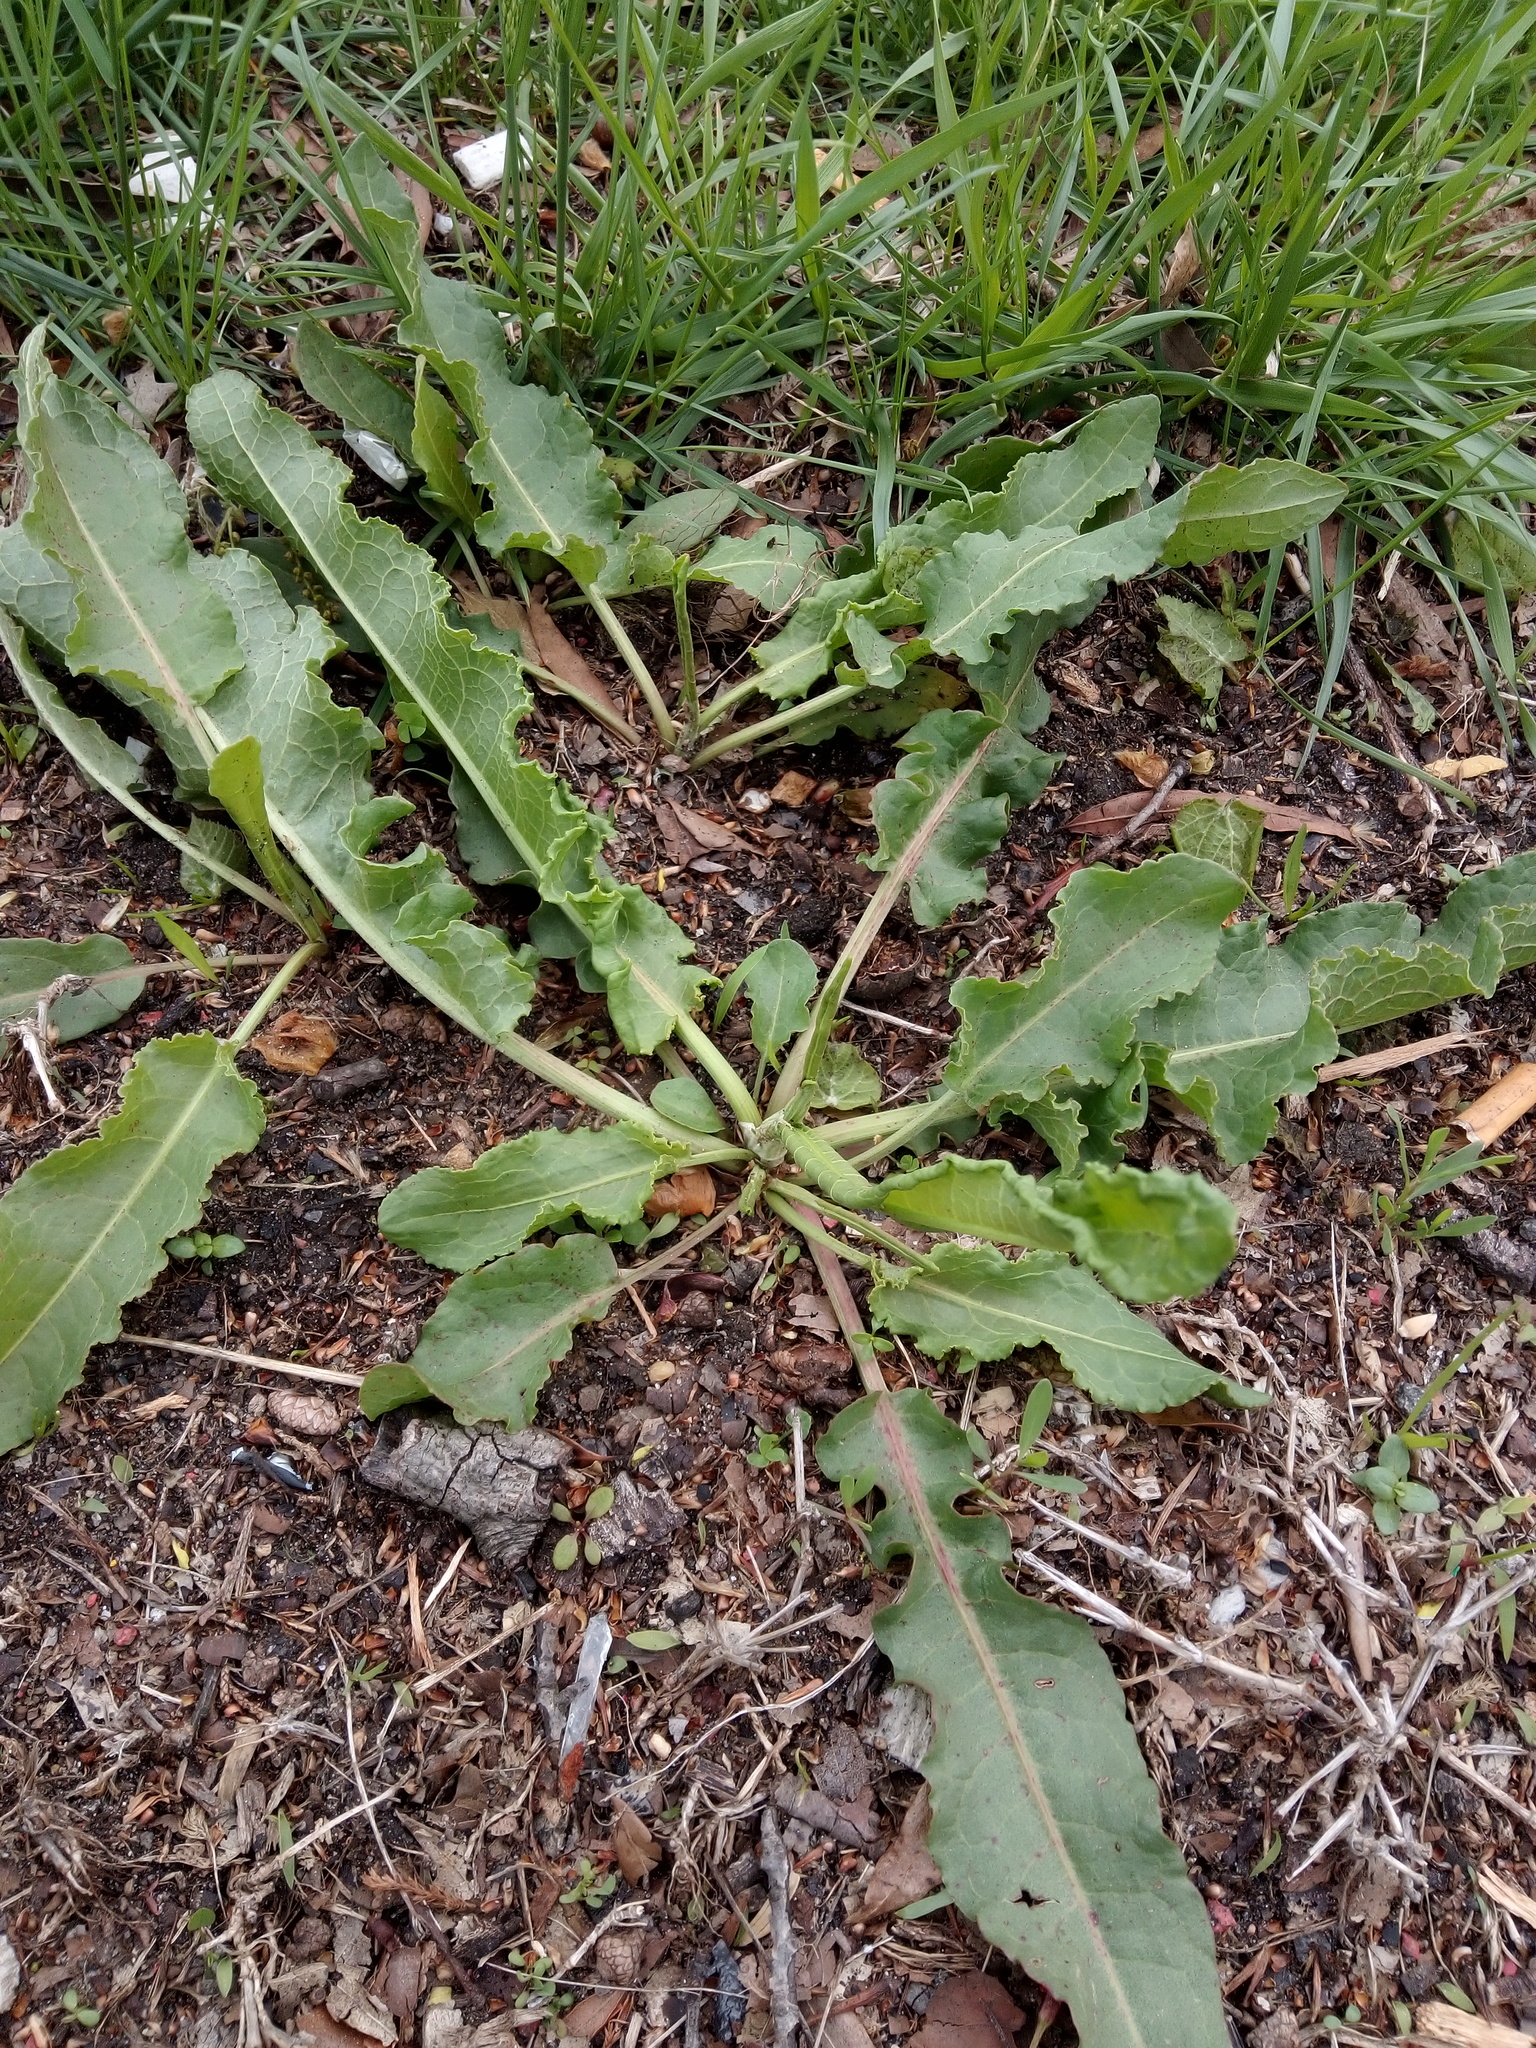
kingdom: Plantae
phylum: Tracheophyta
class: Magnoliopsida
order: Caryophyllales
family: Polygonaceae
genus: Rumex
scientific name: Rumex crispus
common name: Curled dock
